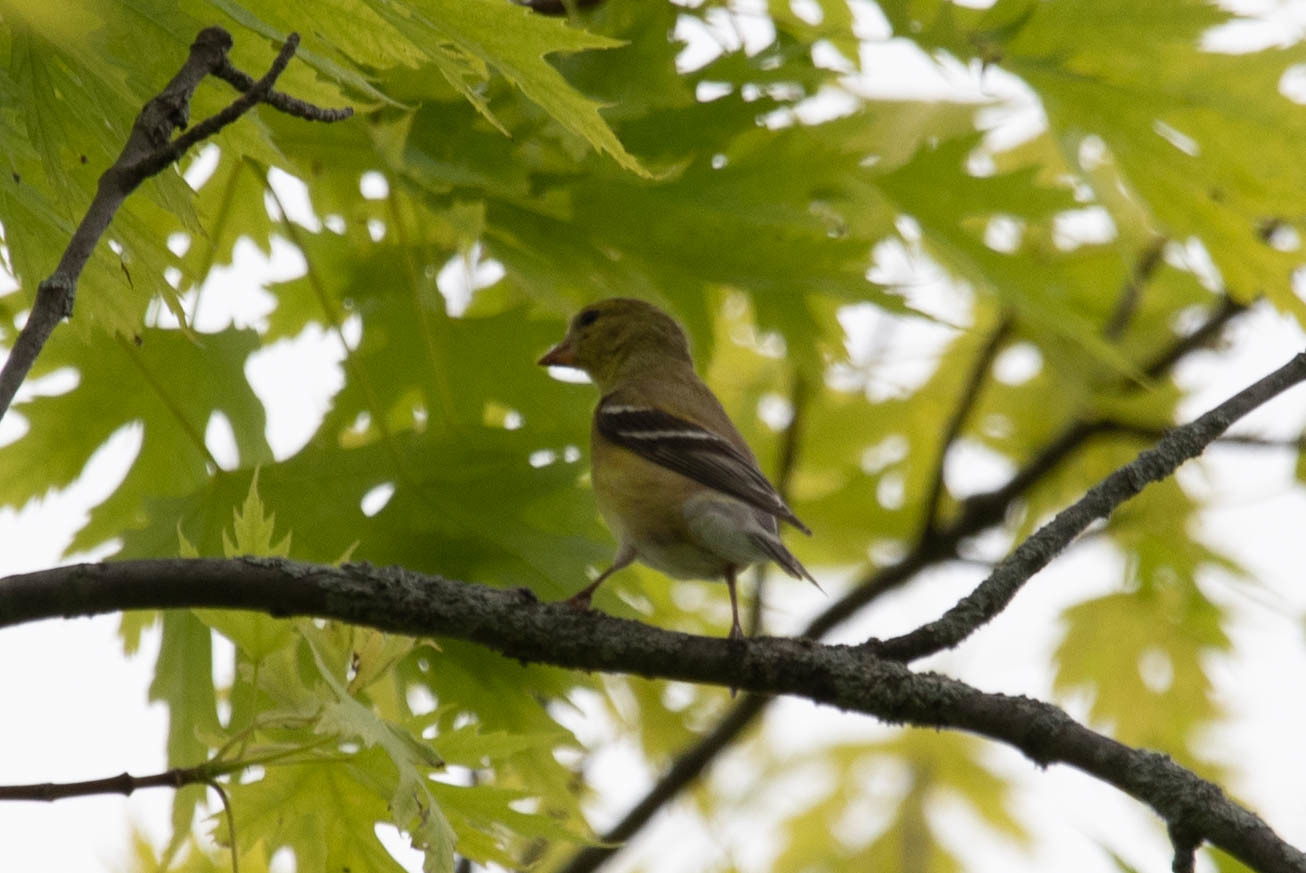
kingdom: Animalia
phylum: Chordata
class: Aves
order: Passeriformes
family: Fringillidae
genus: Spinus
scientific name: Spinus tristis
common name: American goldfinch
